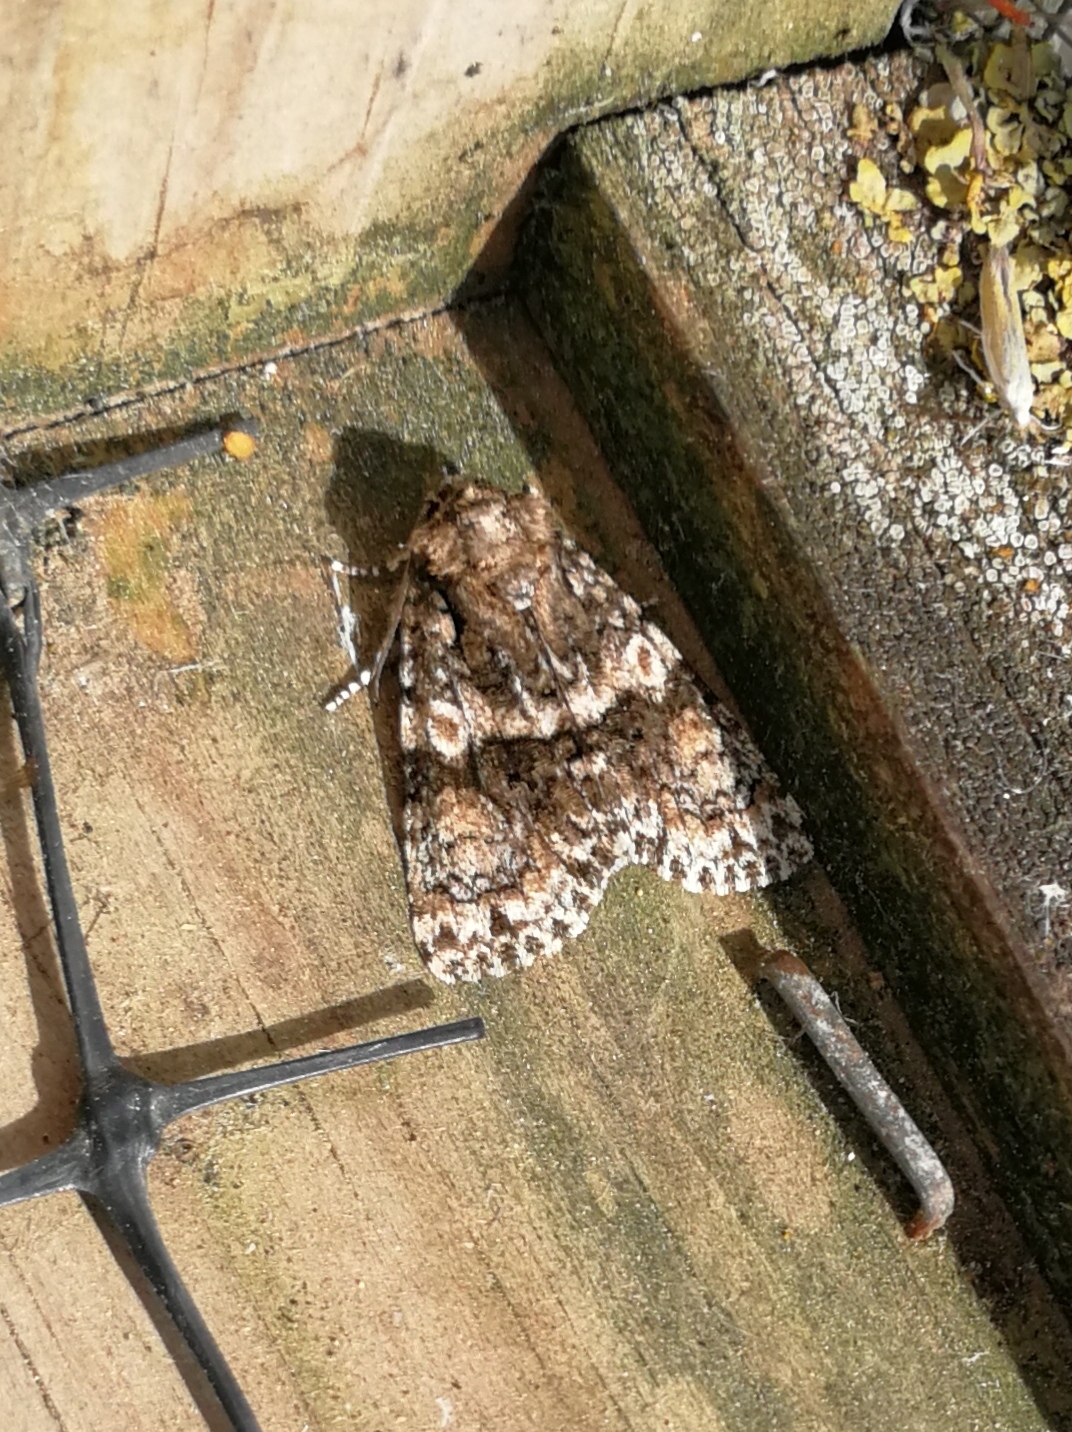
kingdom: Animalia
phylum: Arthropoda
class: Insecta
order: Lepidoptera
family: Noctuidae
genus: Craniophora
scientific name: Craniophora pontica
